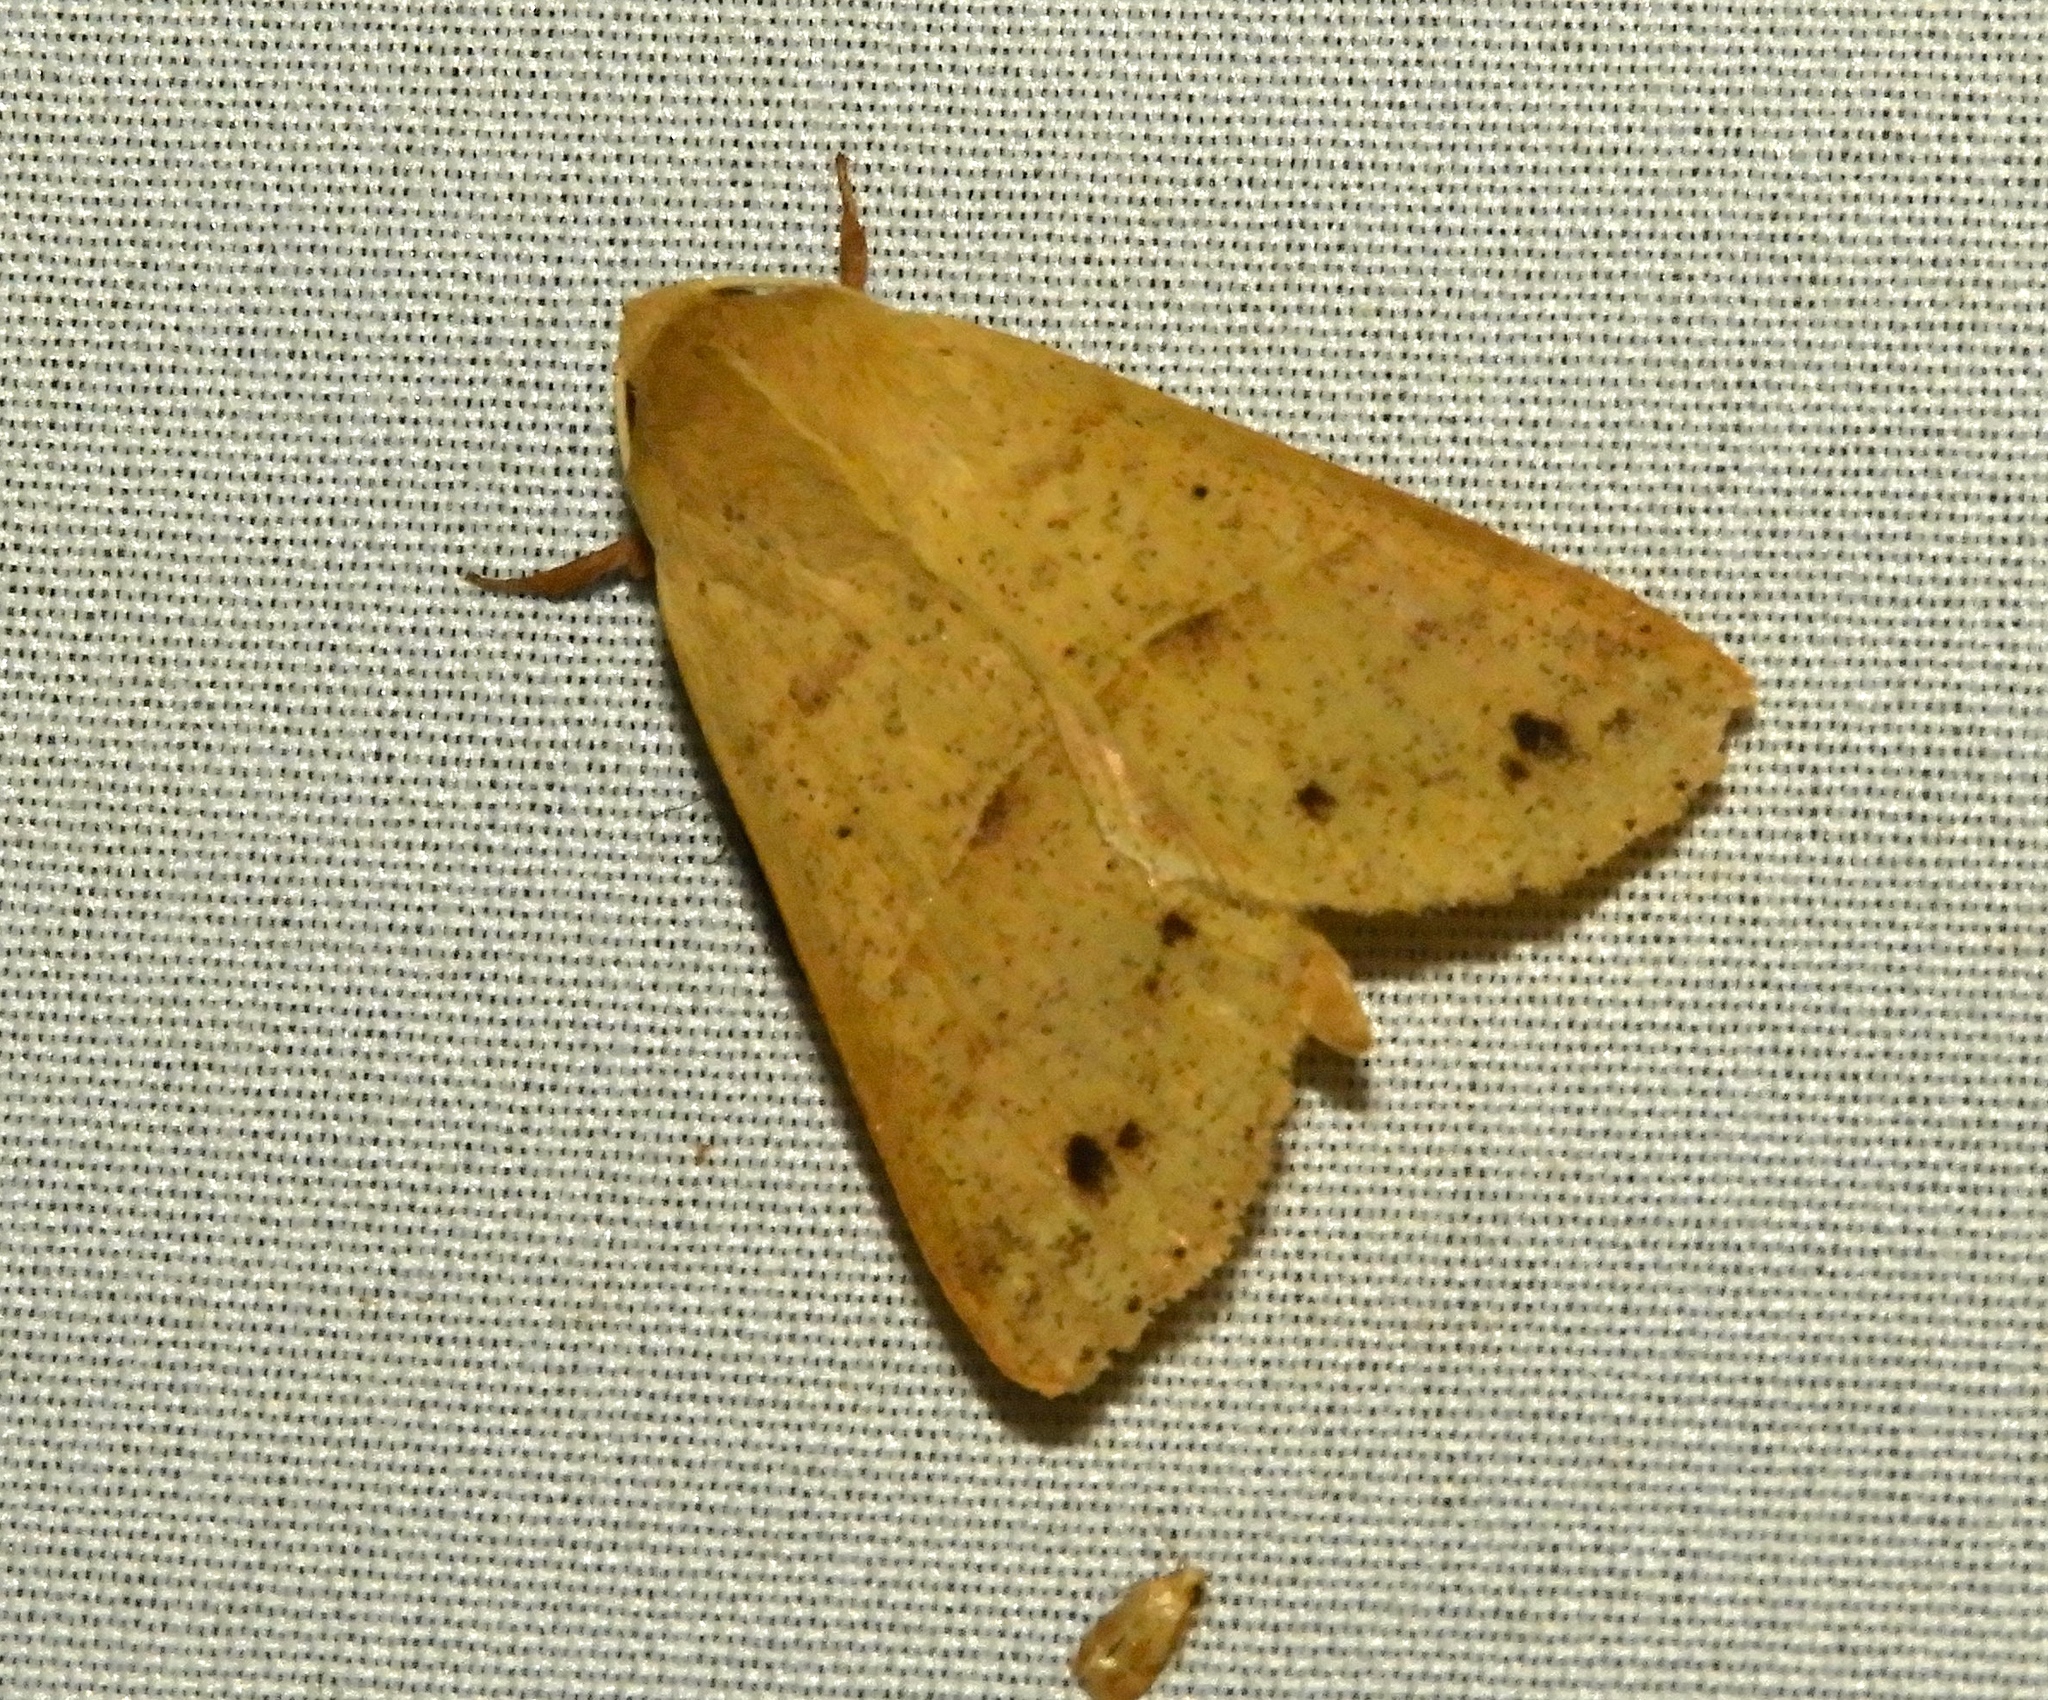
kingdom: Animalia
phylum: Arthropoda
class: Insecta
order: Lepidoptera
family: Erebidae
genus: Obrima
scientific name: Obrima
